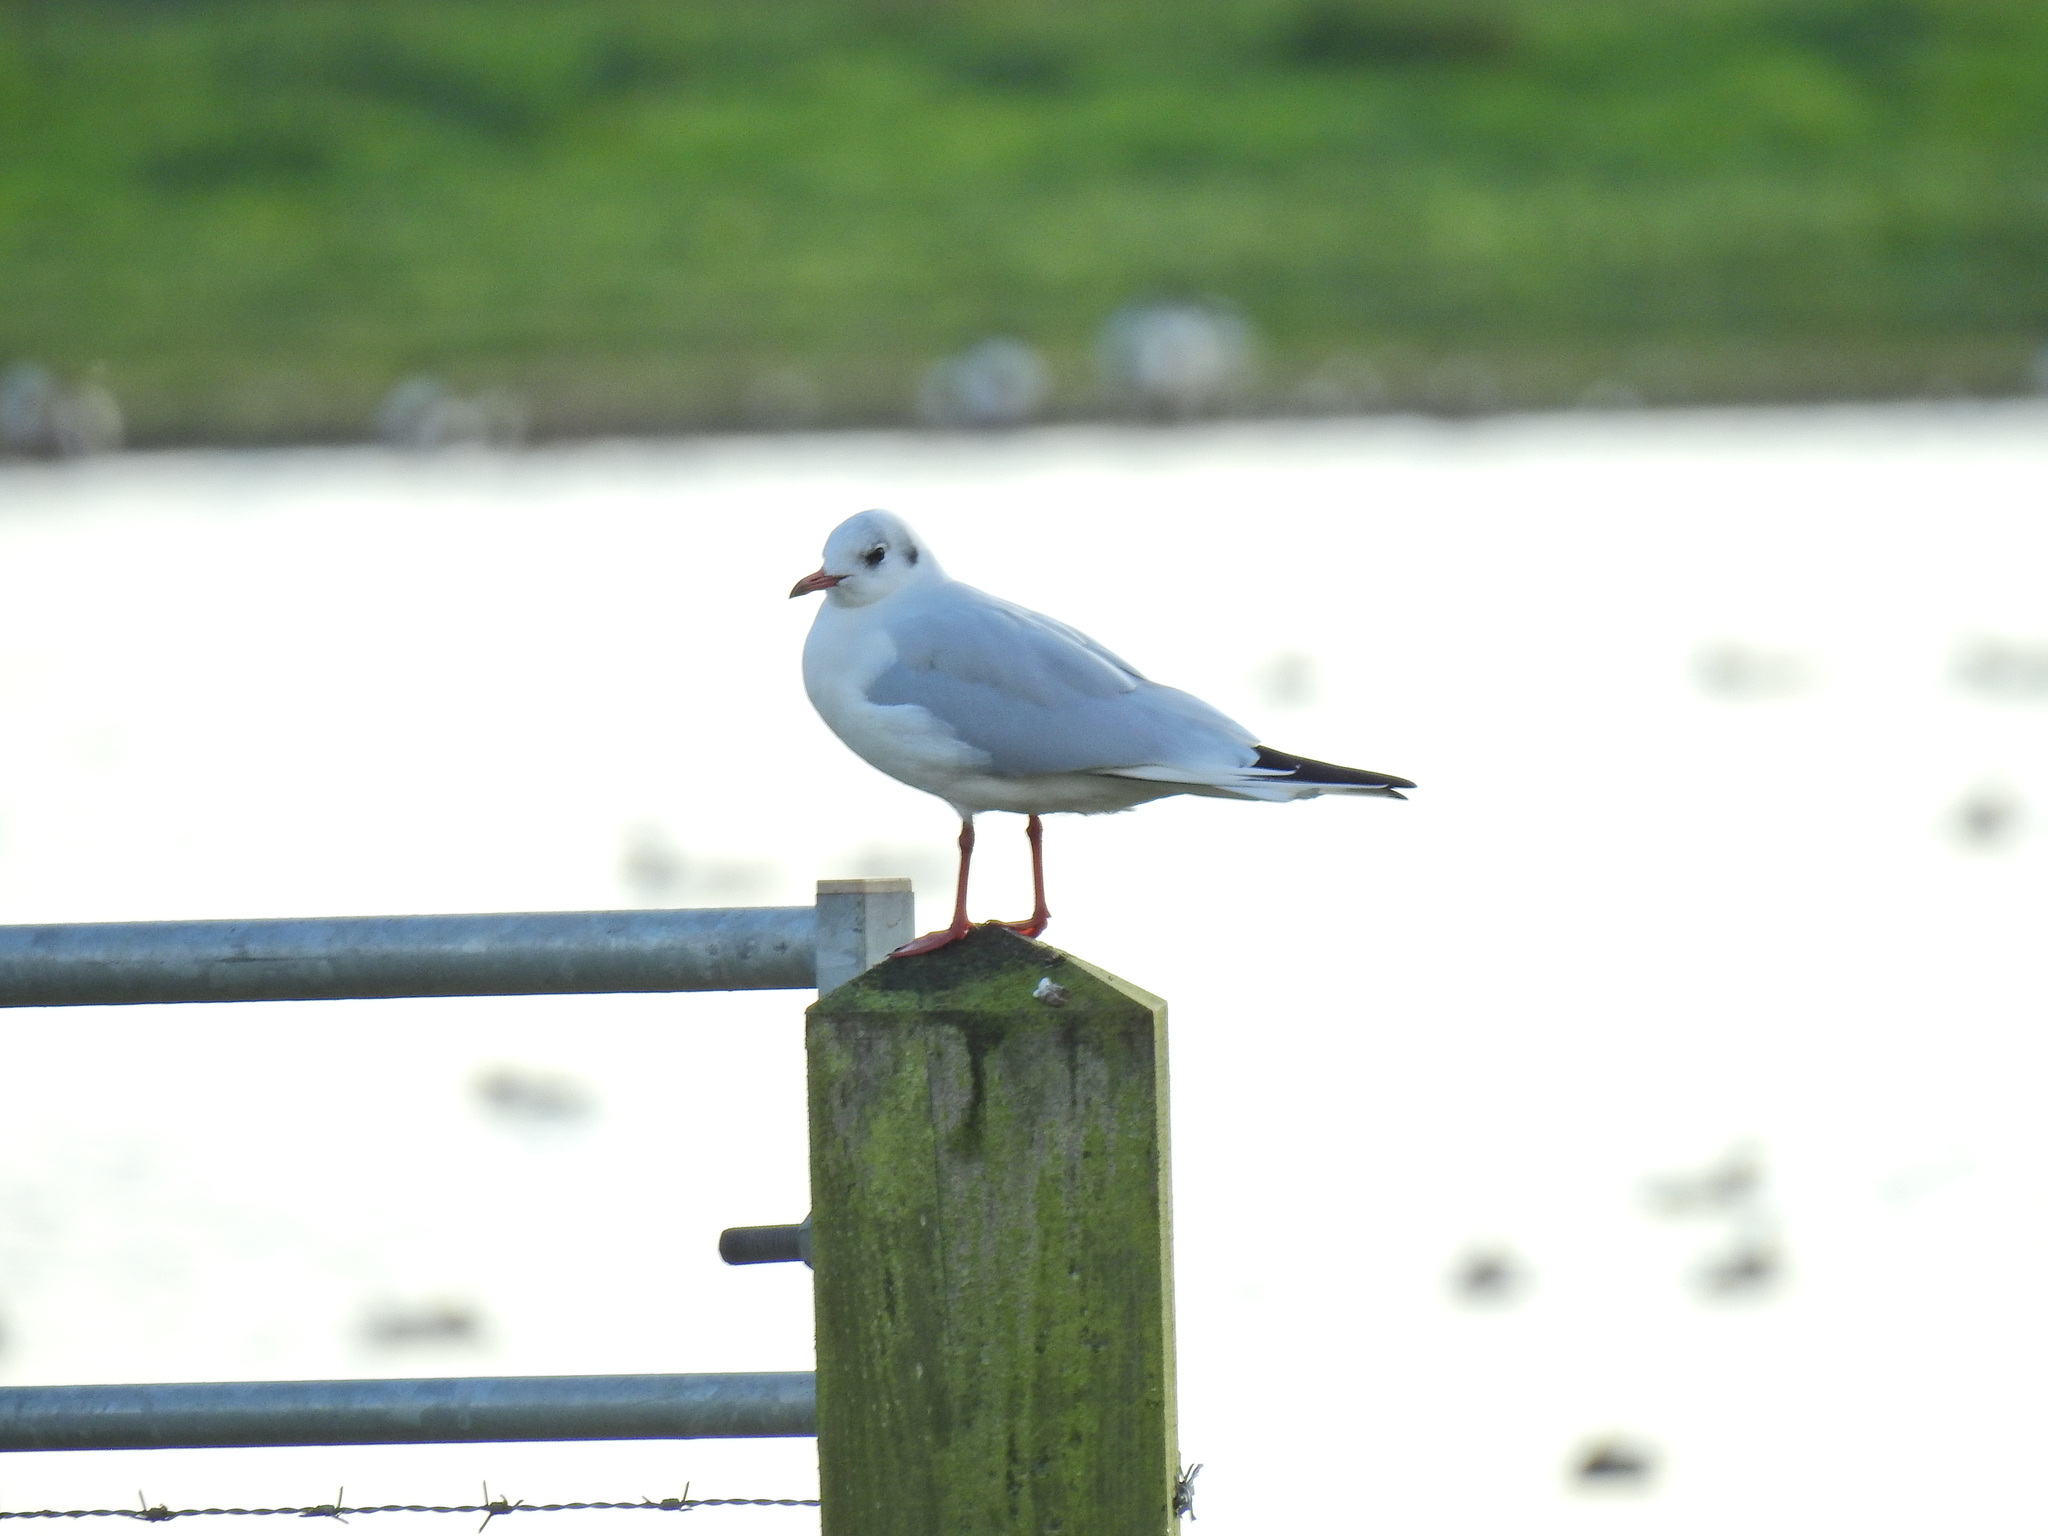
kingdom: Animalia
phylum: Chordata
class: Aves
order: Charadriiformes
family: Laridae
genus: Chroicocephalus
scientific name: Chroicocephalus ridibundus
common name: Black-headed gull
